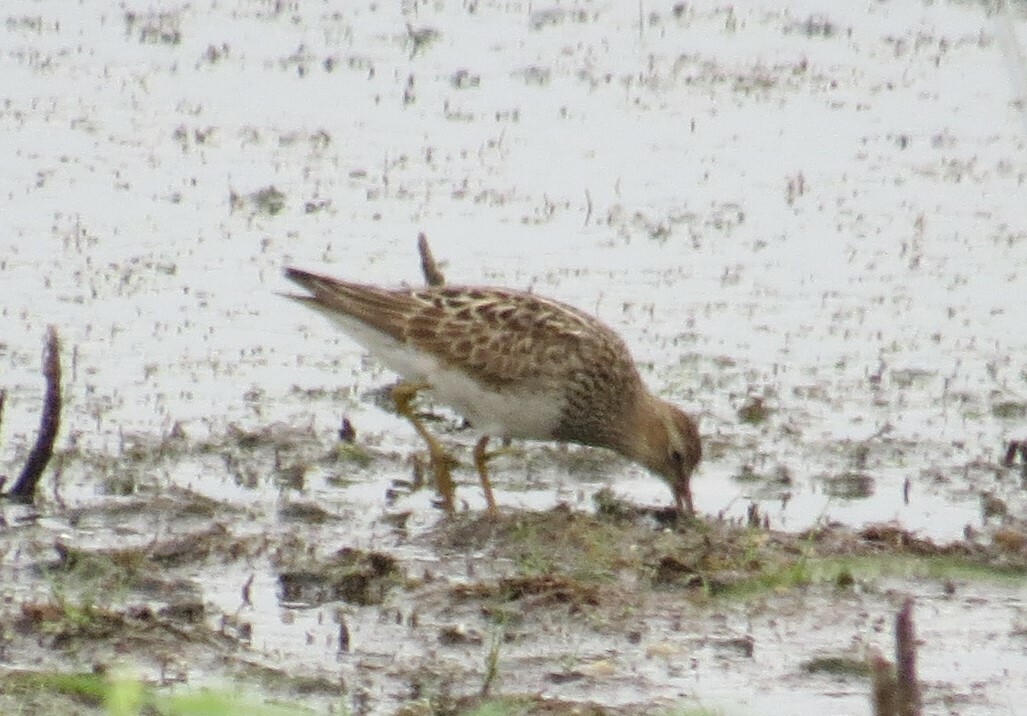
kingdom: Animalia
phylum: Chordata
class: Aves
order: Charadriiformes
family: Scolopacidae
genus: Calidris
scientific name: Calidris melanotos
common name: Pectoral sandpiper
